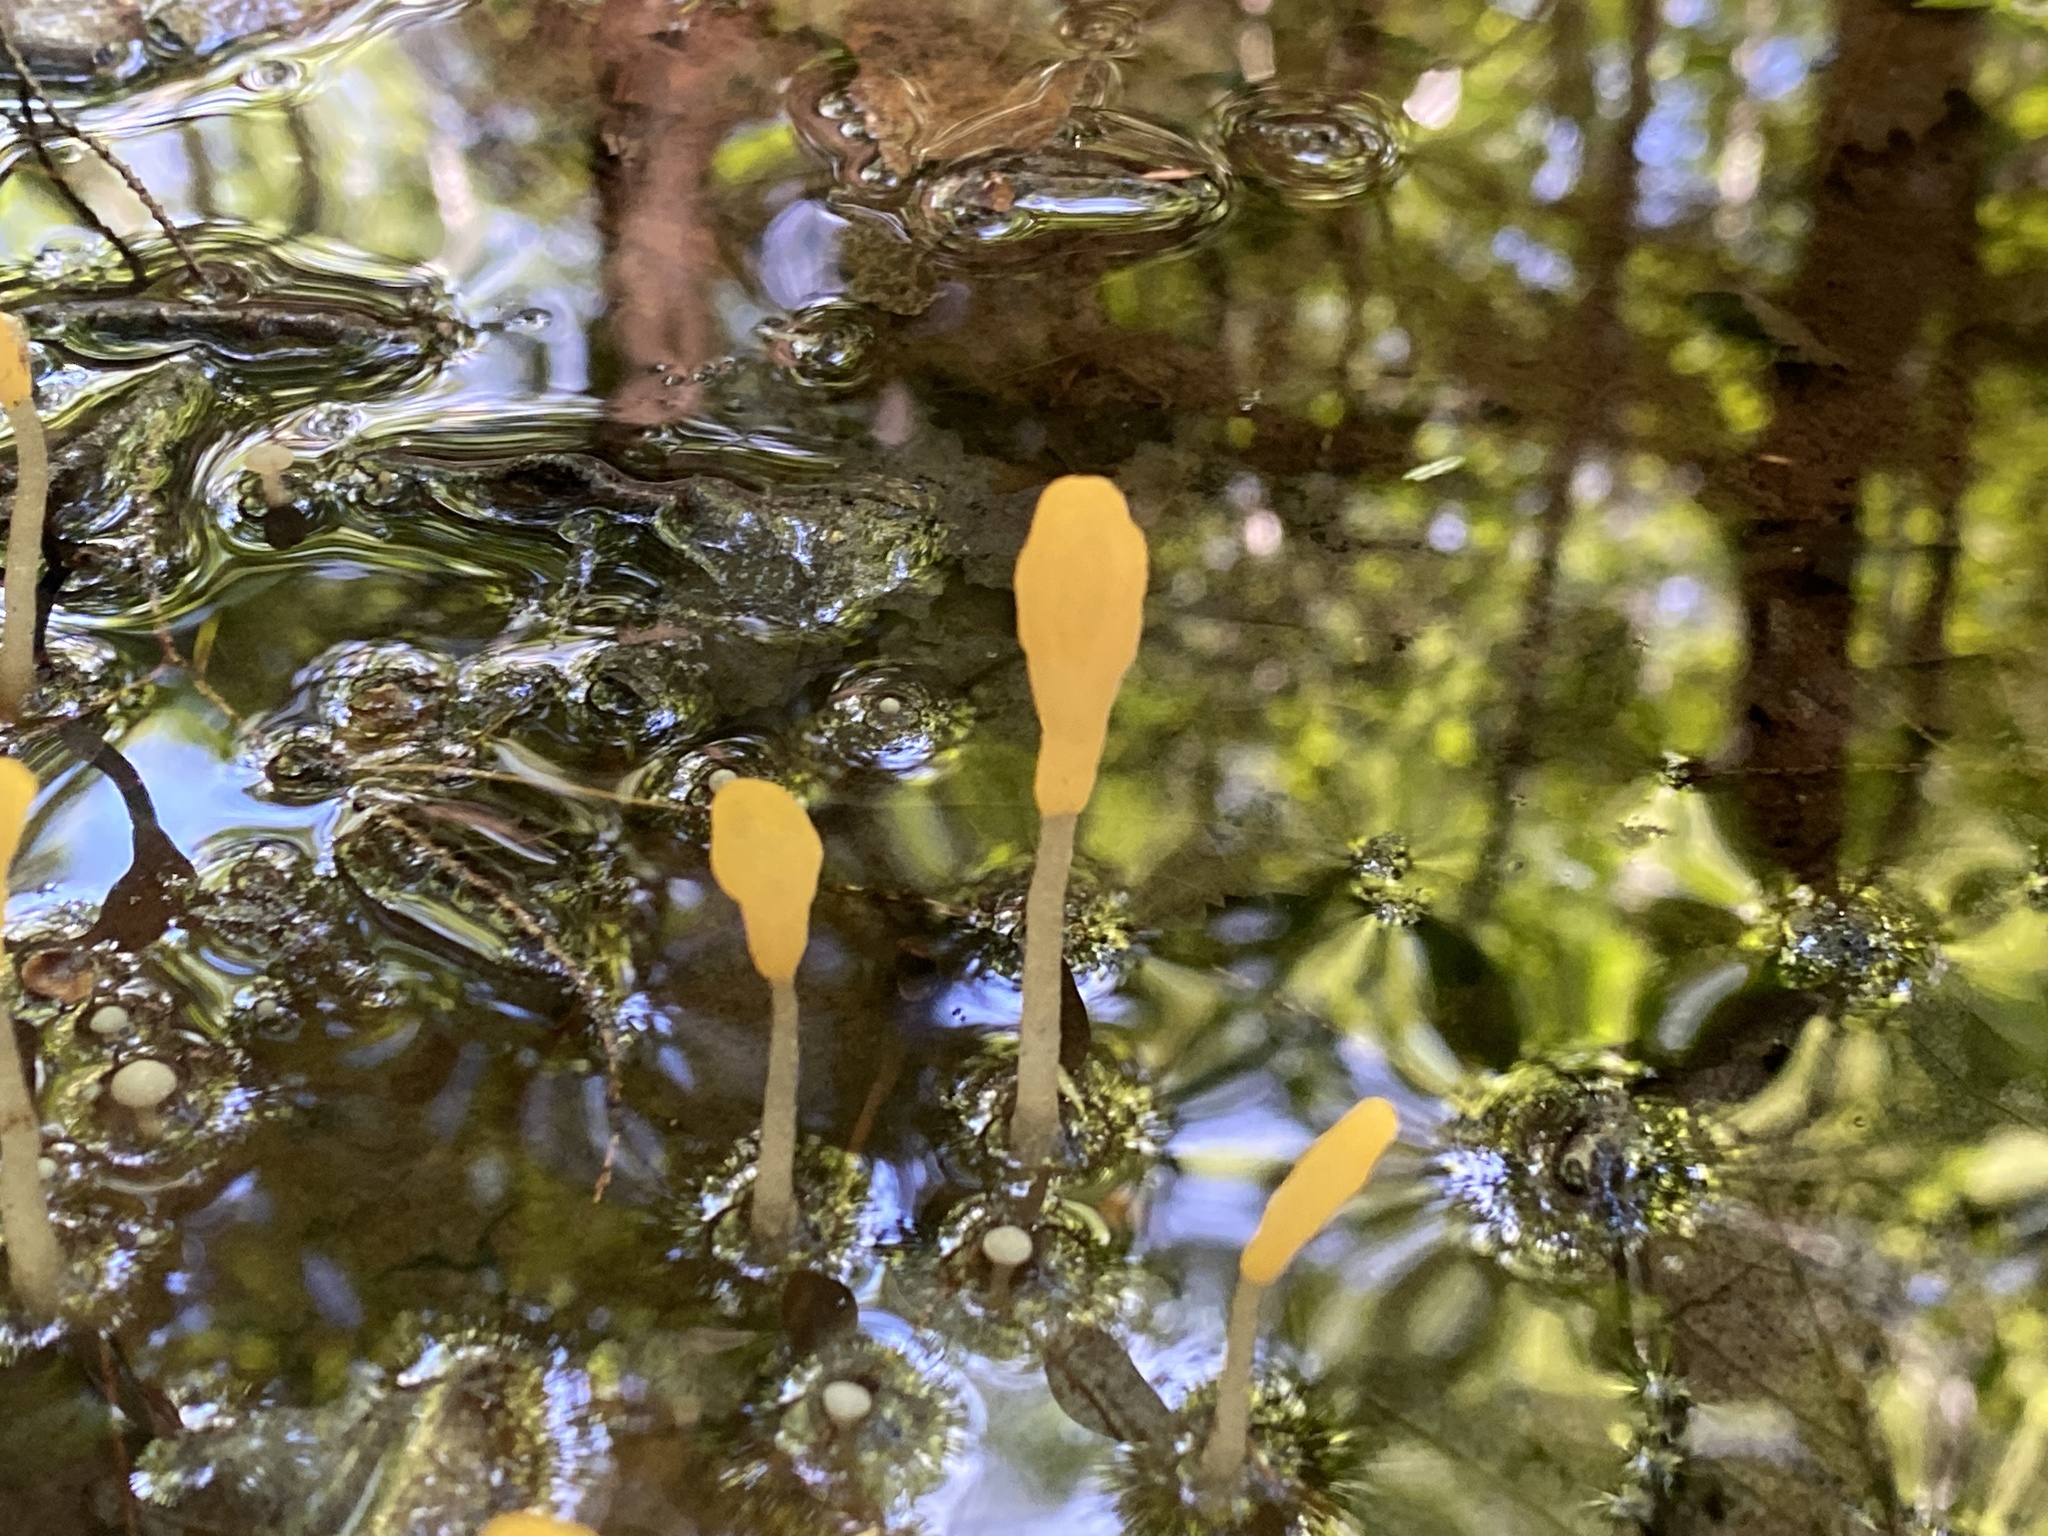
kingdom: Fungi
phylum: Ascomycota
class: Leotiomycetes
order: Leotiales
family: Leotiaceae
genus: Microglossum
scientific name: Microglossum rufum
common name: Orange earthtongue
